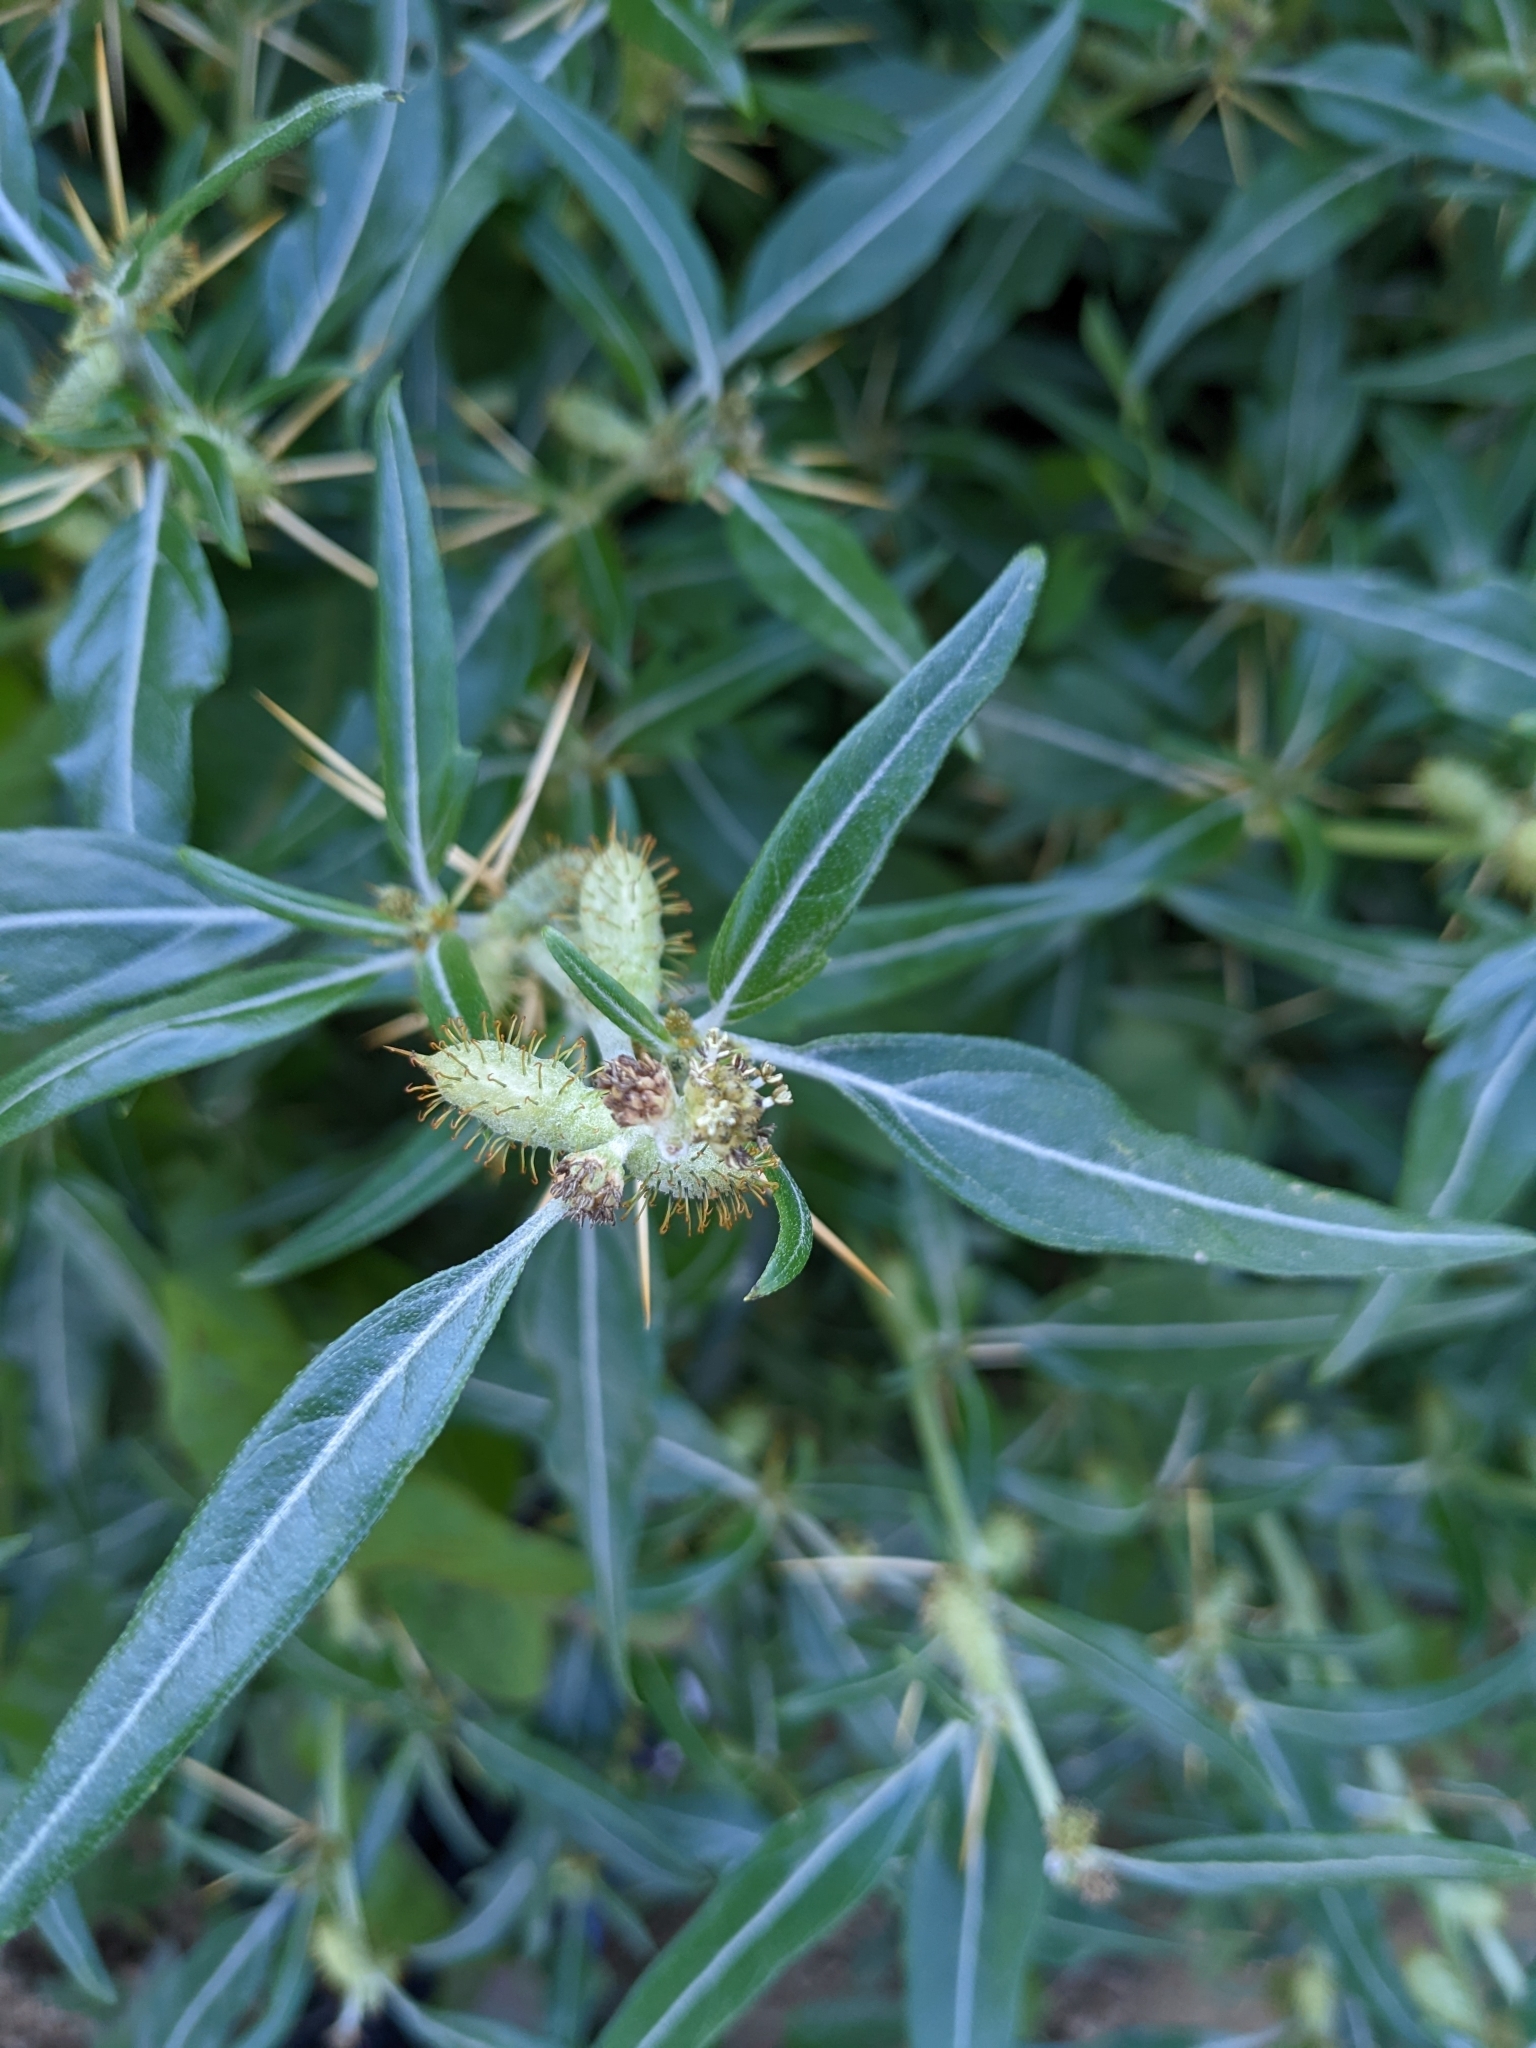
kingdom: Plantae
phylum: Tracheophyta
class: Magnoliopsida
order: Asterales
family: Asteraceae
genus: Xanthium
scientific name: Xanthium spinosum
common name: Spiny cocklebur
